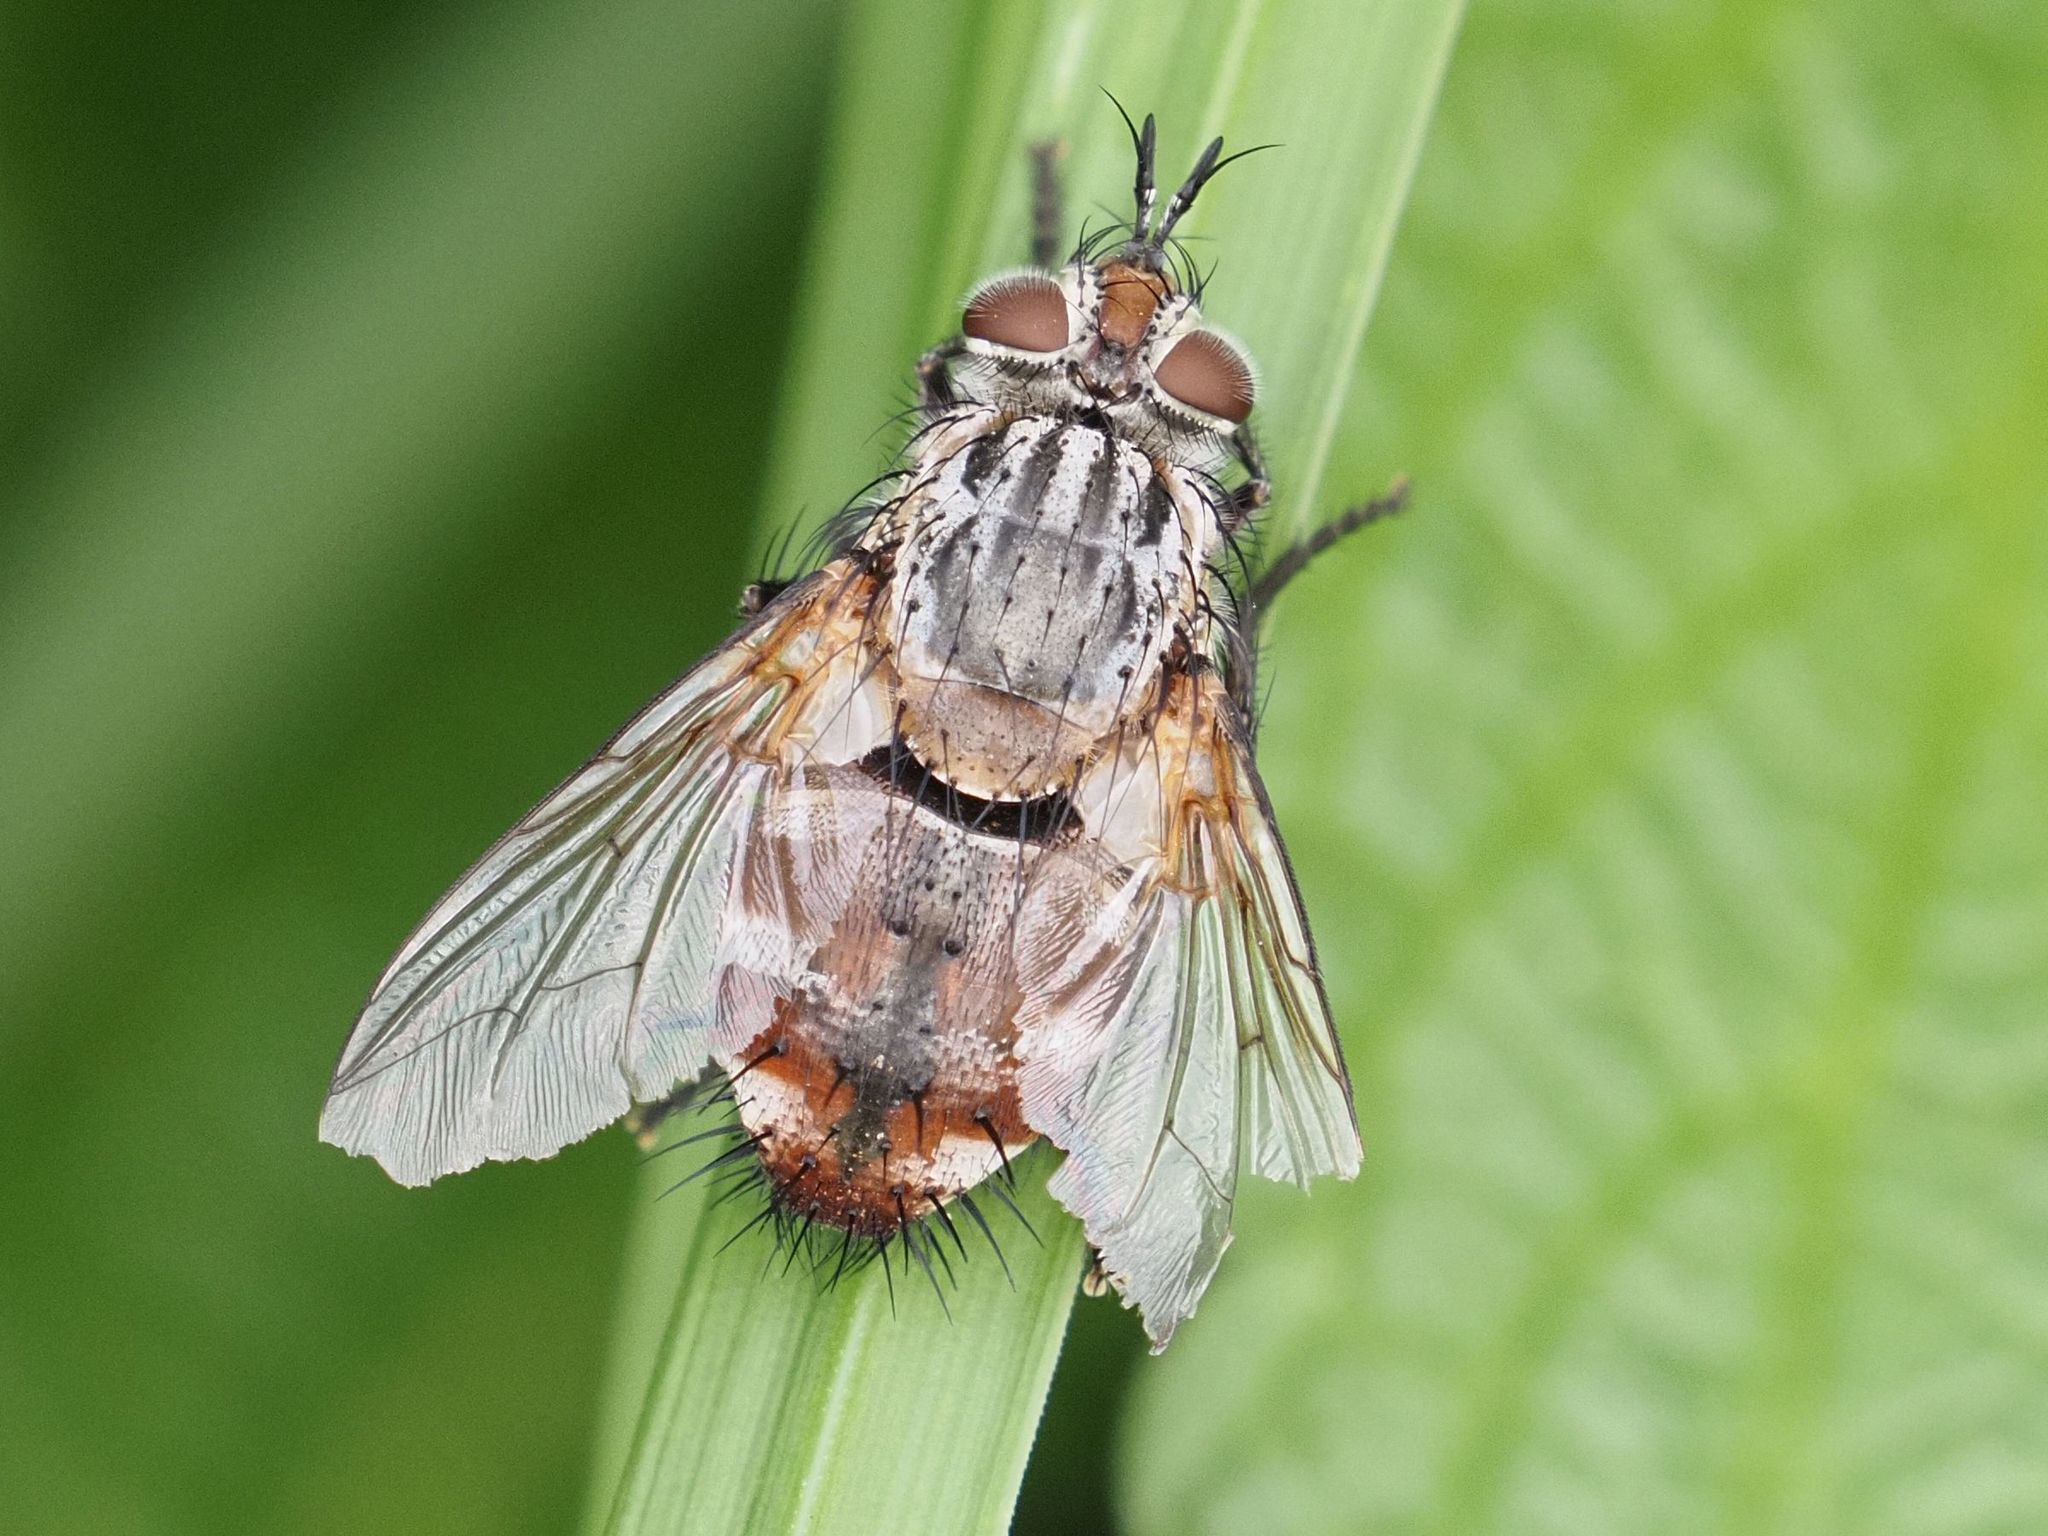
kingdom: Animalia
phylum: Arthropoda
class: Insecta
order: Diptera
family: Tachinidae
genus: Linnaemya
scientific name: Linnaemya vulpina
